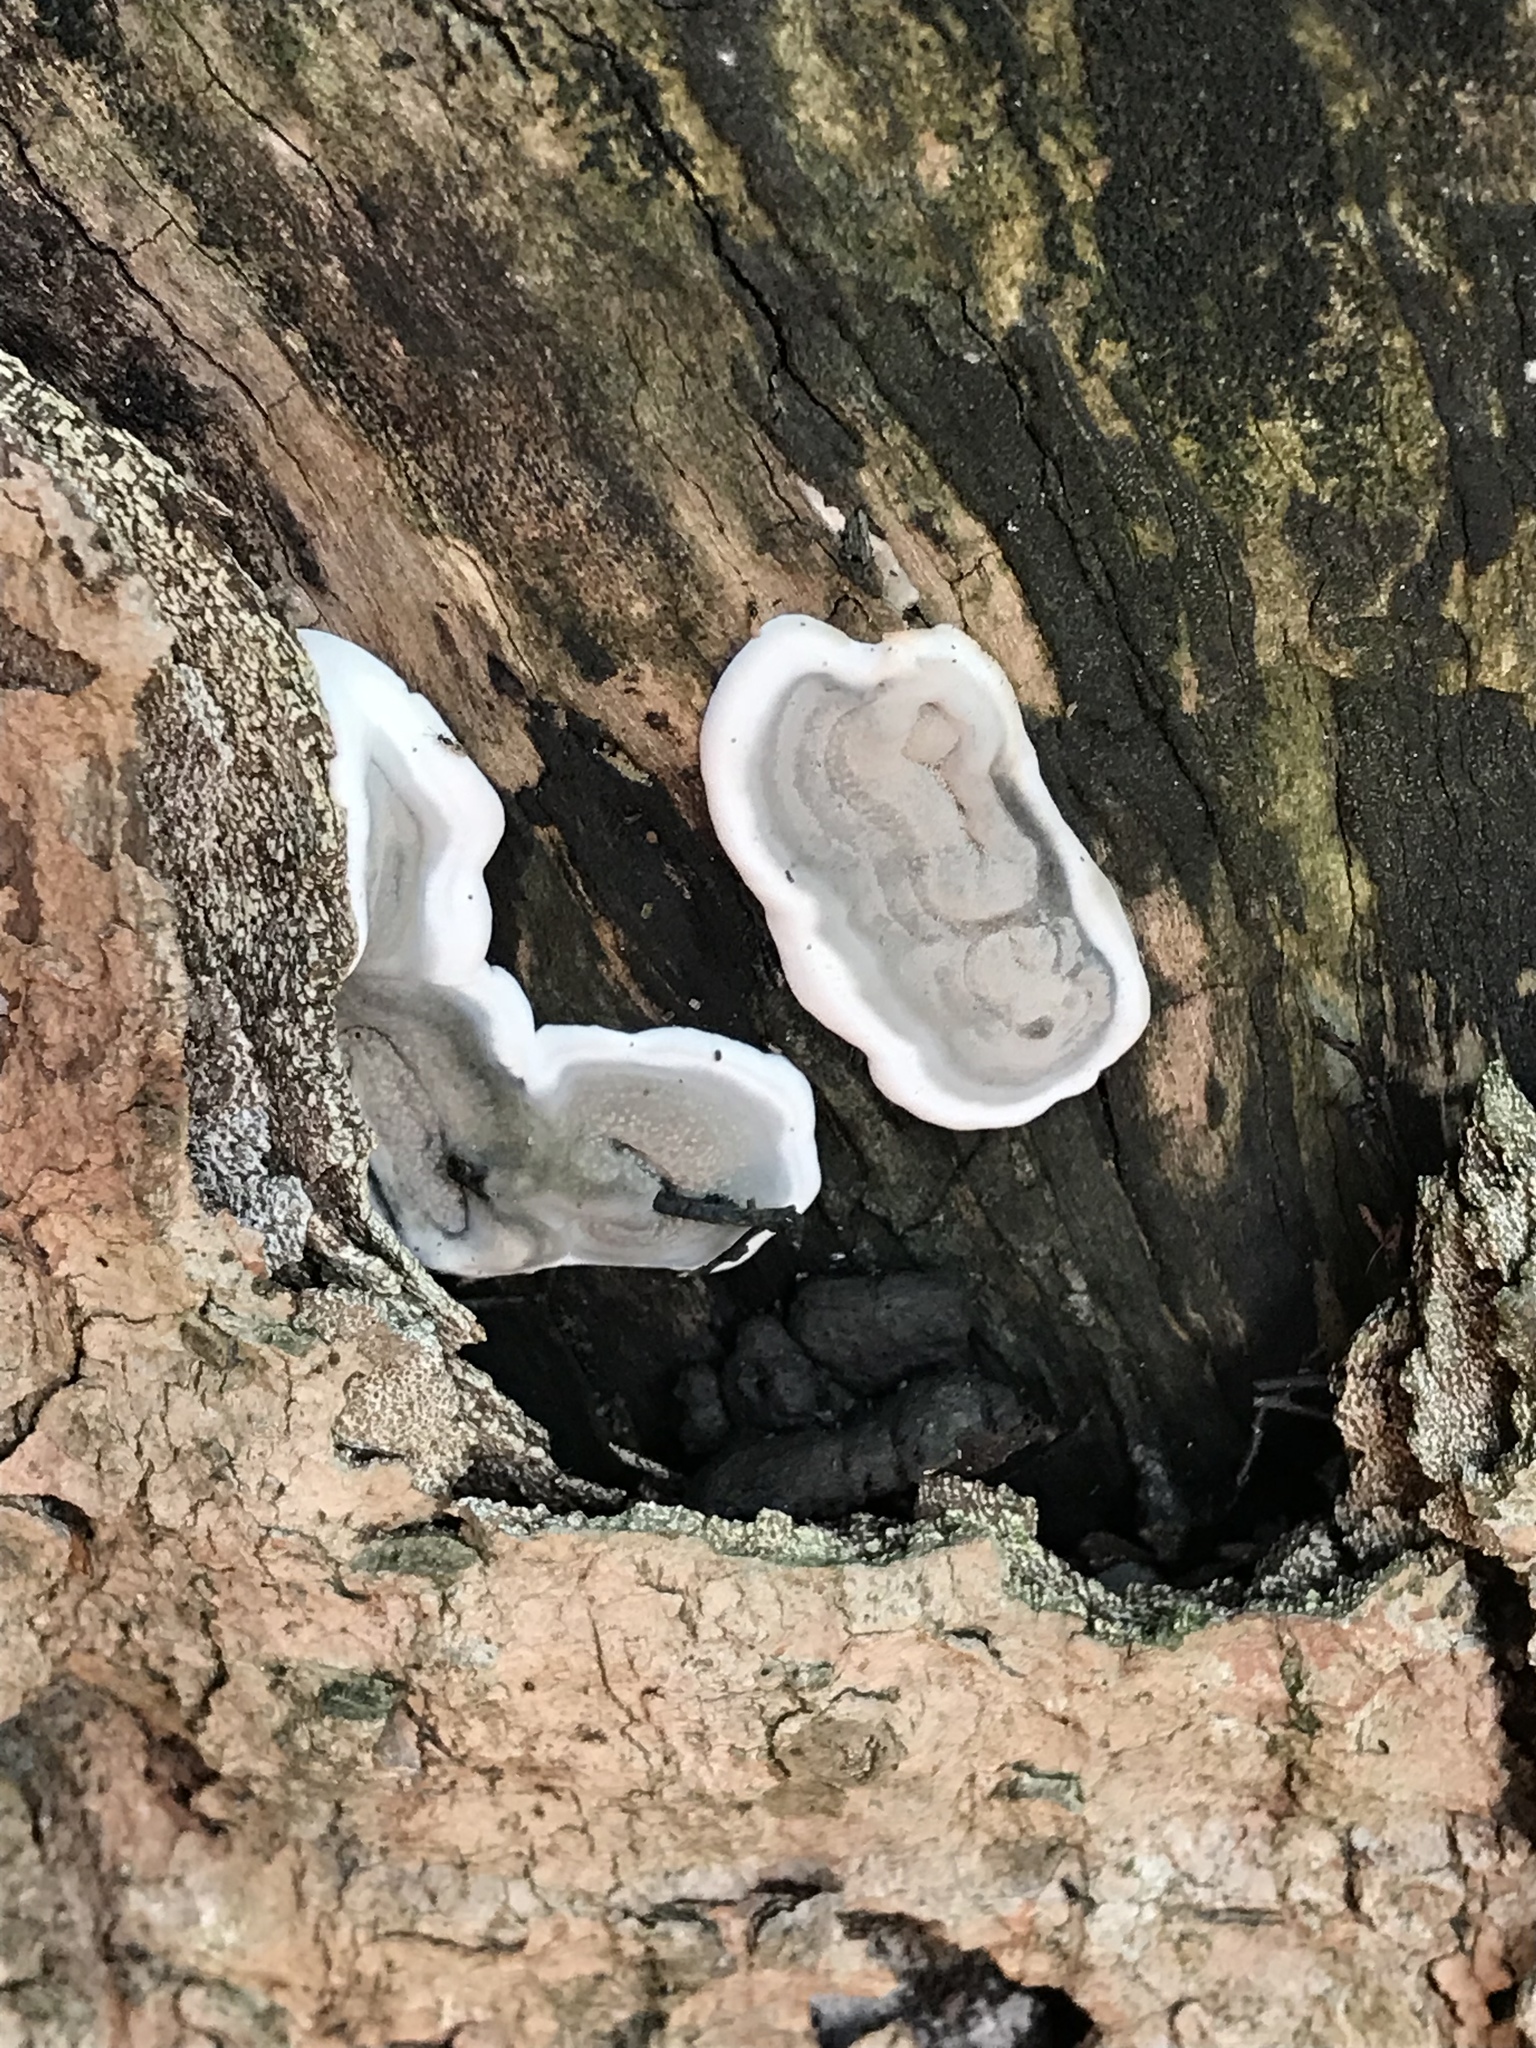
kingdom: Fungi
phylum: Ascomycota
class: Sordariomycetes
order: Xylariales
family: Xylariaceae
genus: Kretzschmaria
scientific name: Kretzschmaria deusta
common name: Brittle cinder
